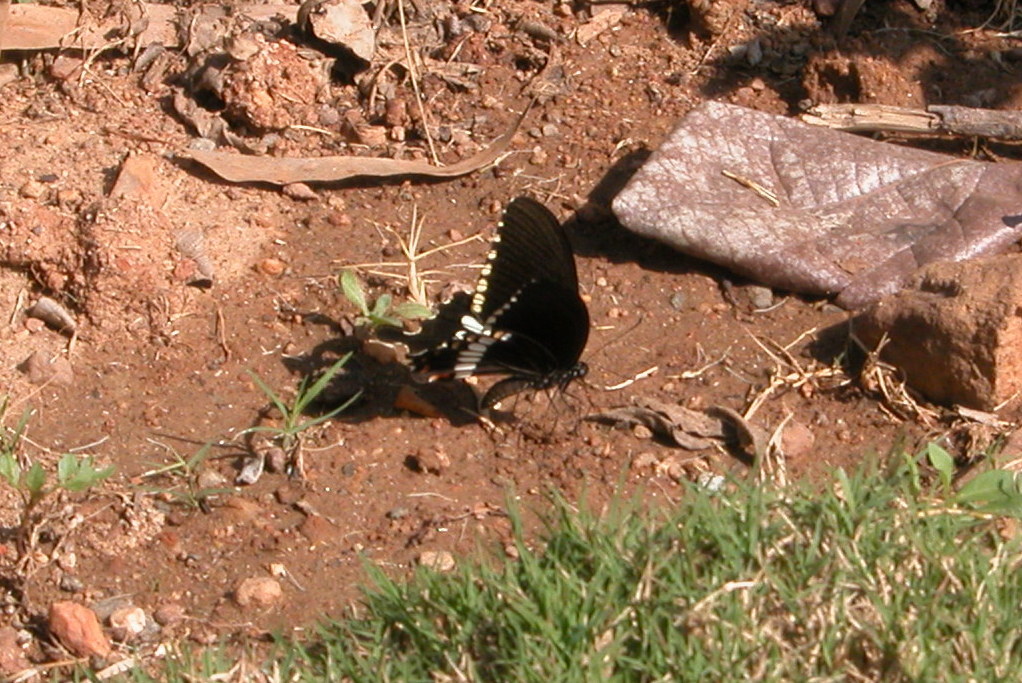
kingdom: Animalia
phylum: Arthropoda
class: Insecta
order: Lepidoptera
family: Papilionidae
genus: Papilio
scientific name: Papilio polytes
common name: Common mormon
